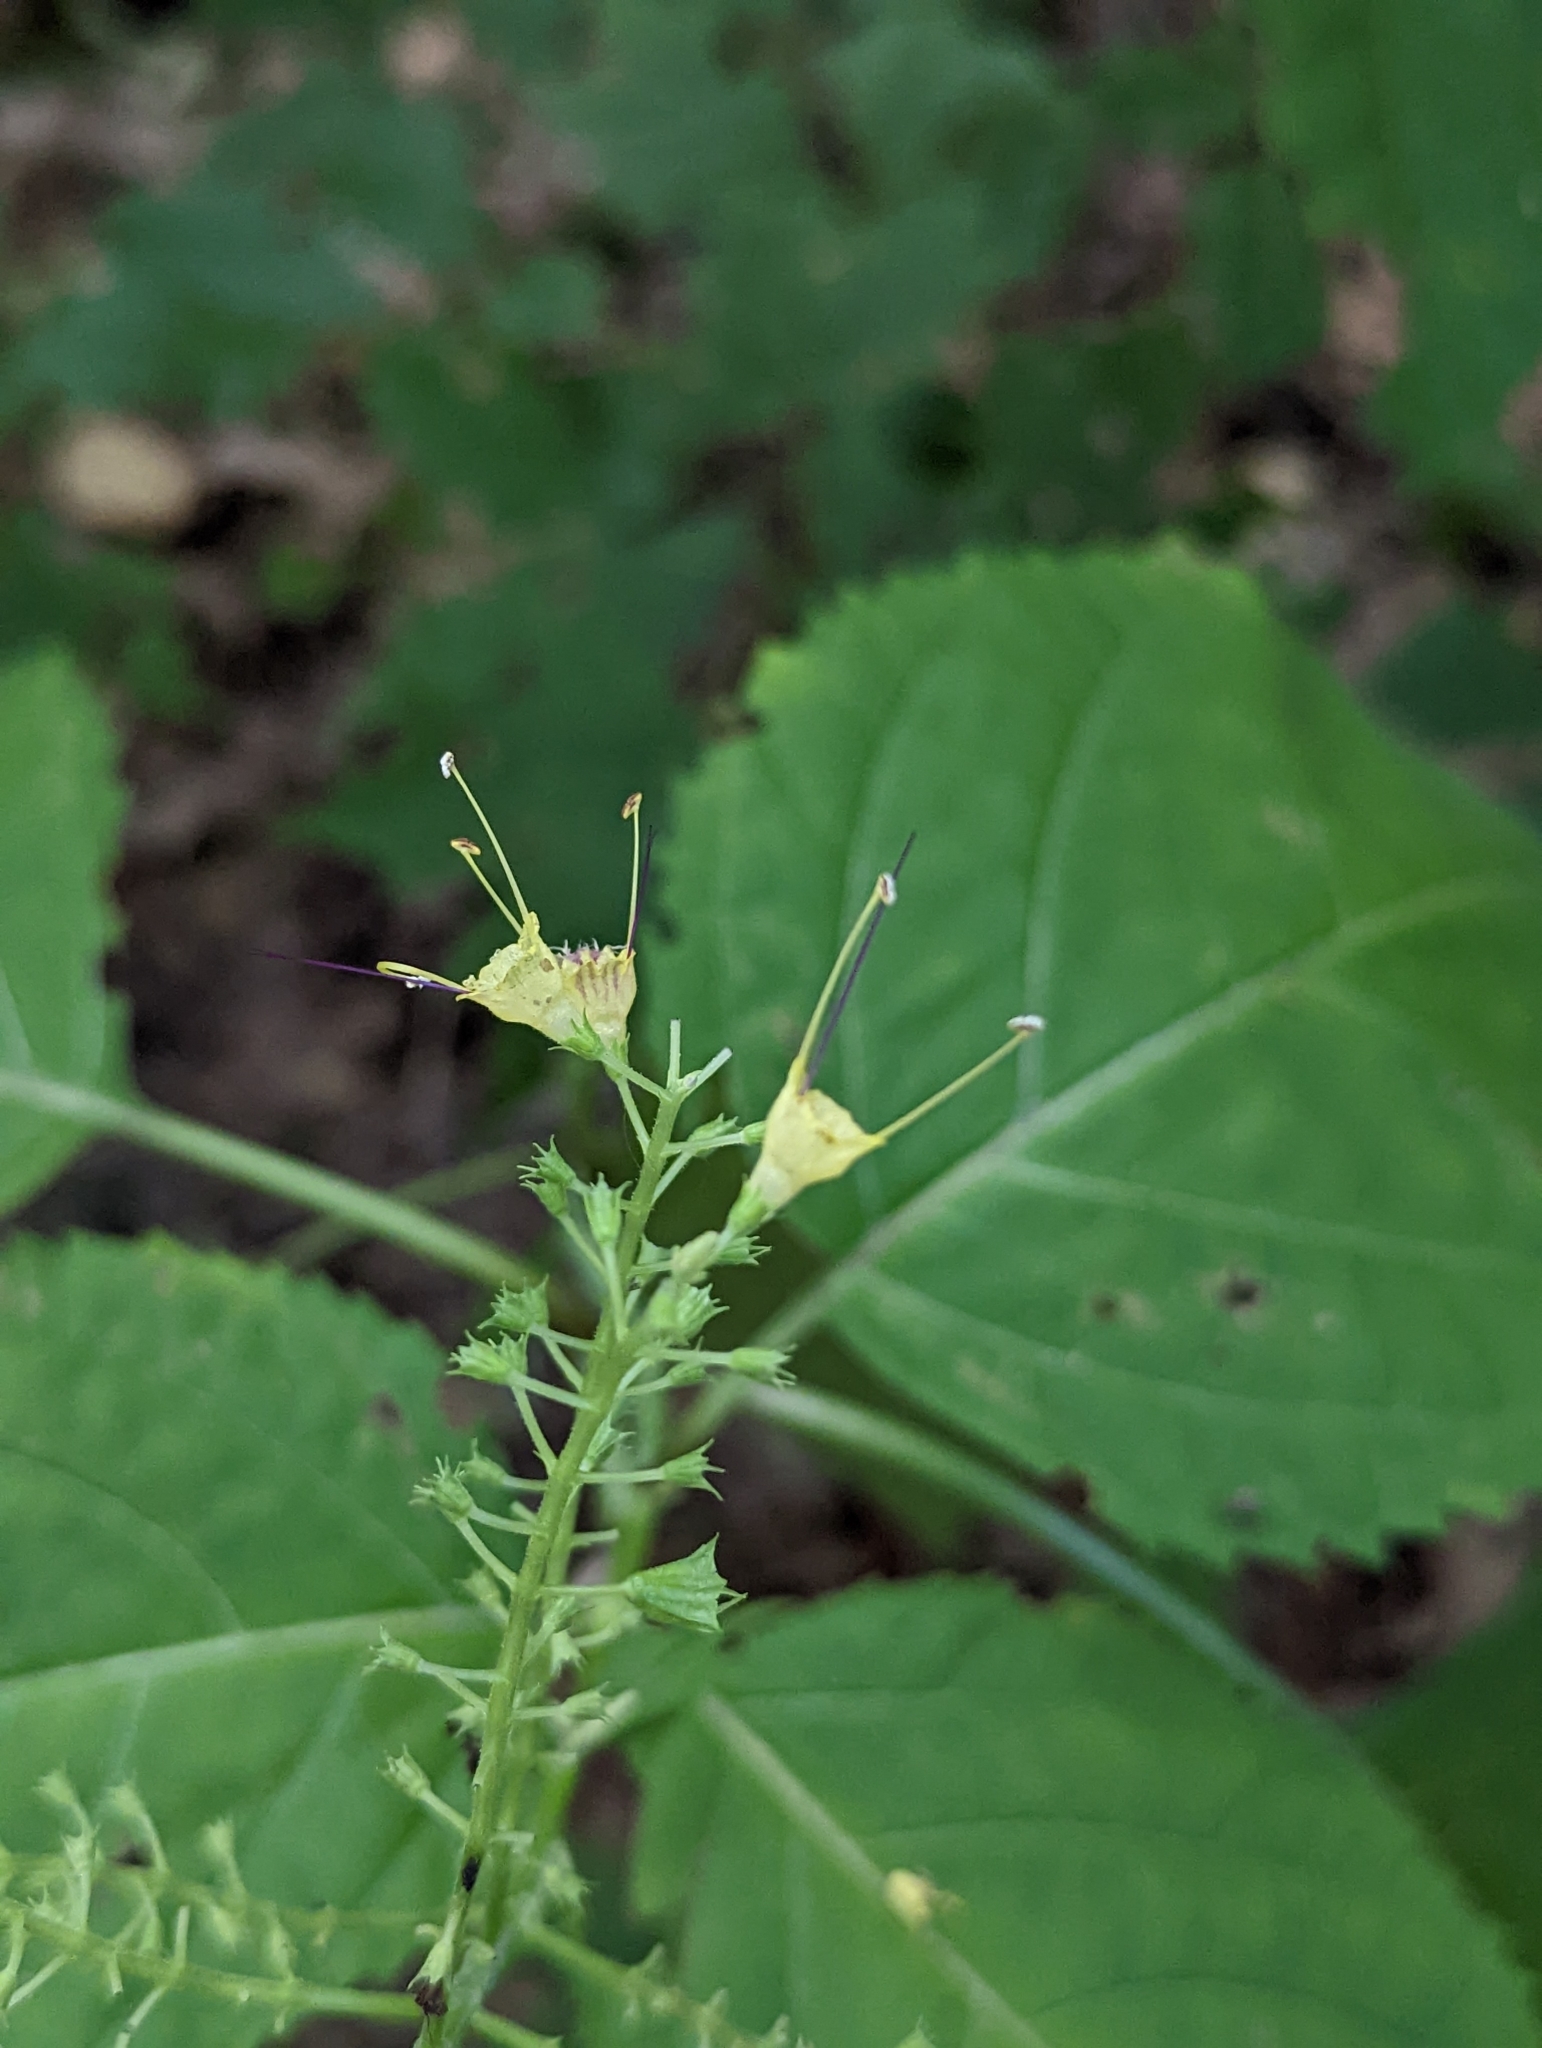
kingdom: Plantae
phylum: Tracheophyta
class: Magnoliopsida
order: Lamiales
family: Lamiaceae
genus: Collinsonia
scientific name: Collinsonia canadensis
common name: Northern horsebalm
